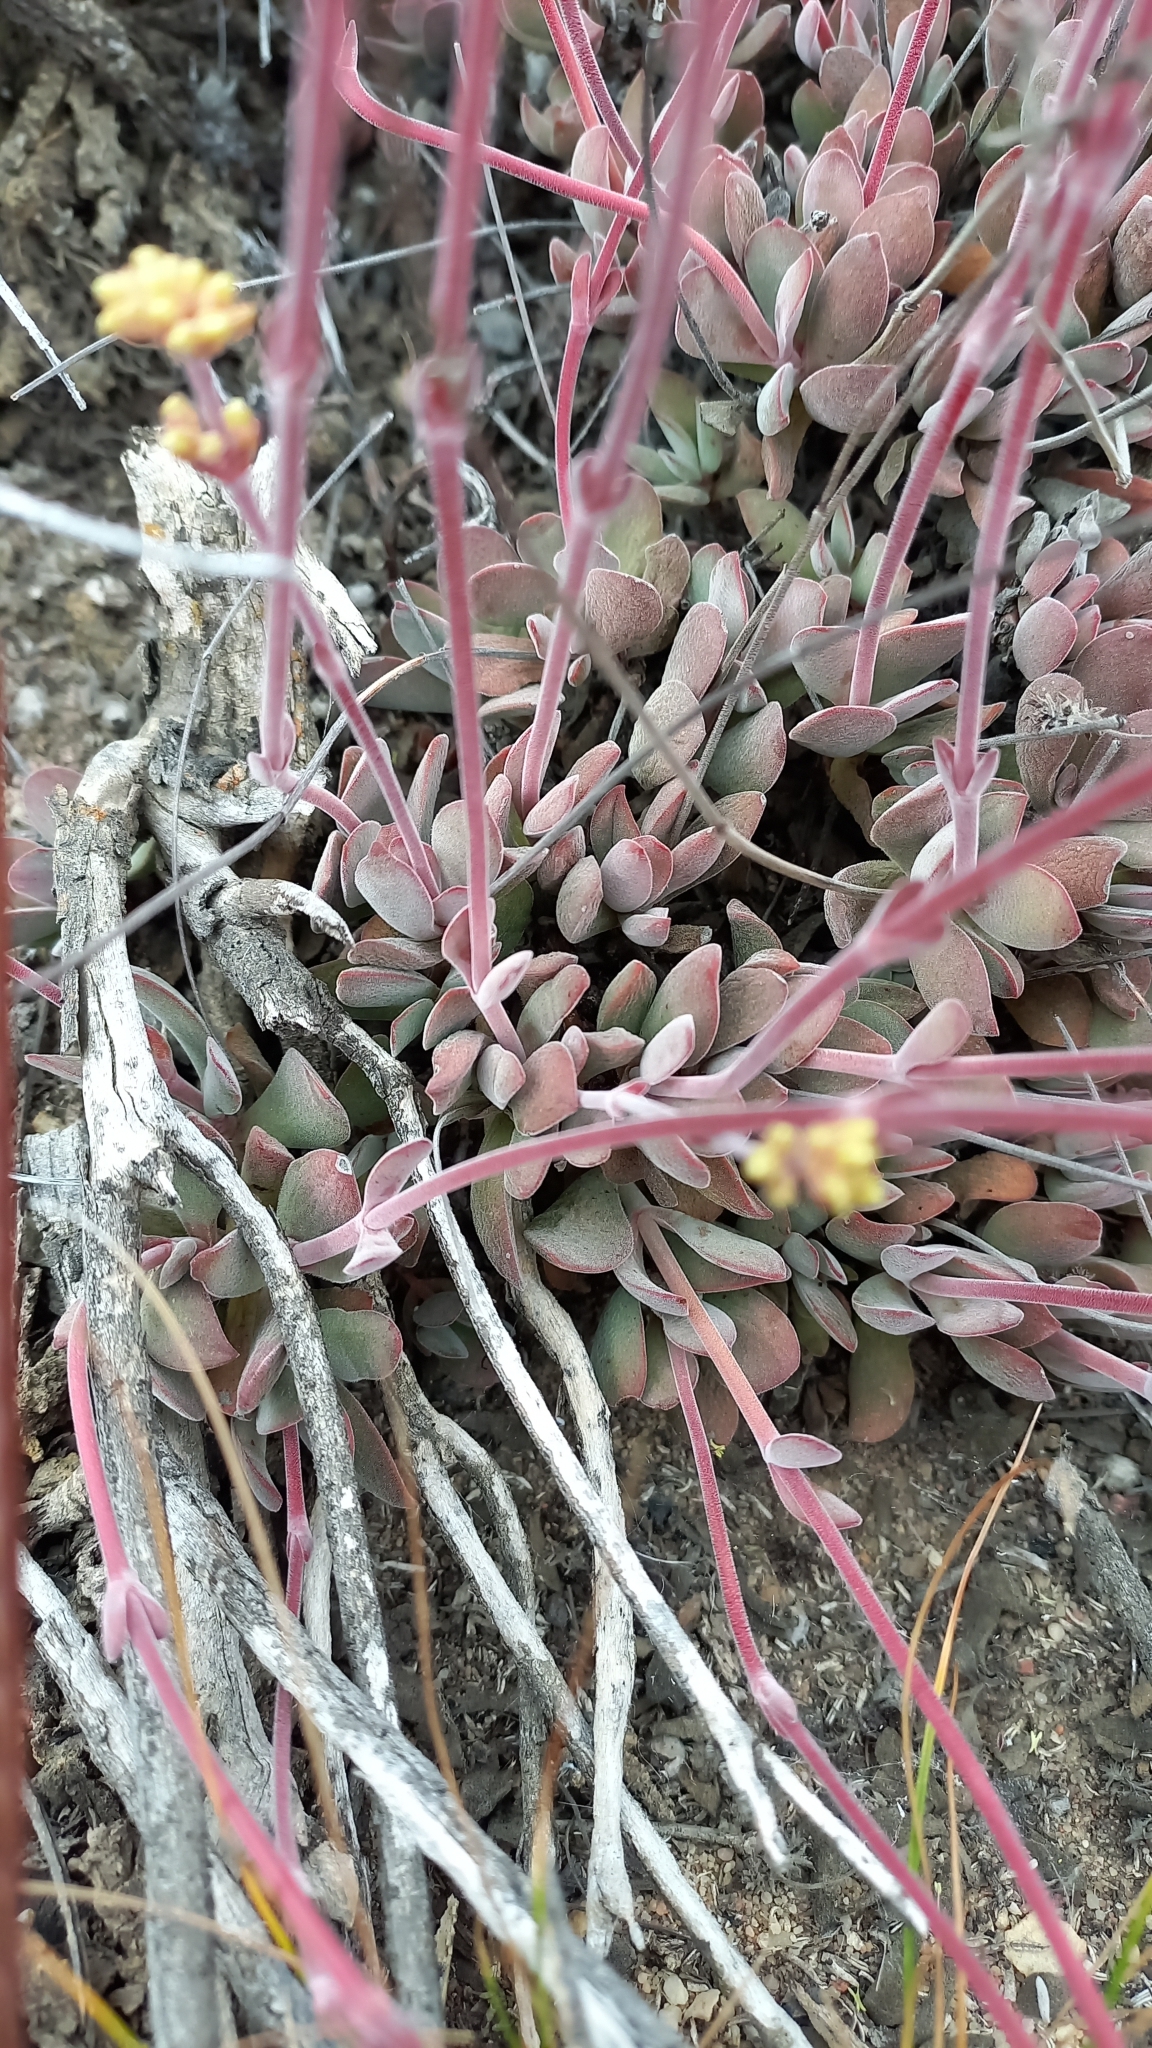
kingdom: Plantae
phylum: Tracheophyta
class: Magnoliopsida
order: Saxifragales
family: Crassulaceae
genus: Crassula
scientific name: Crassula atropurpurea
